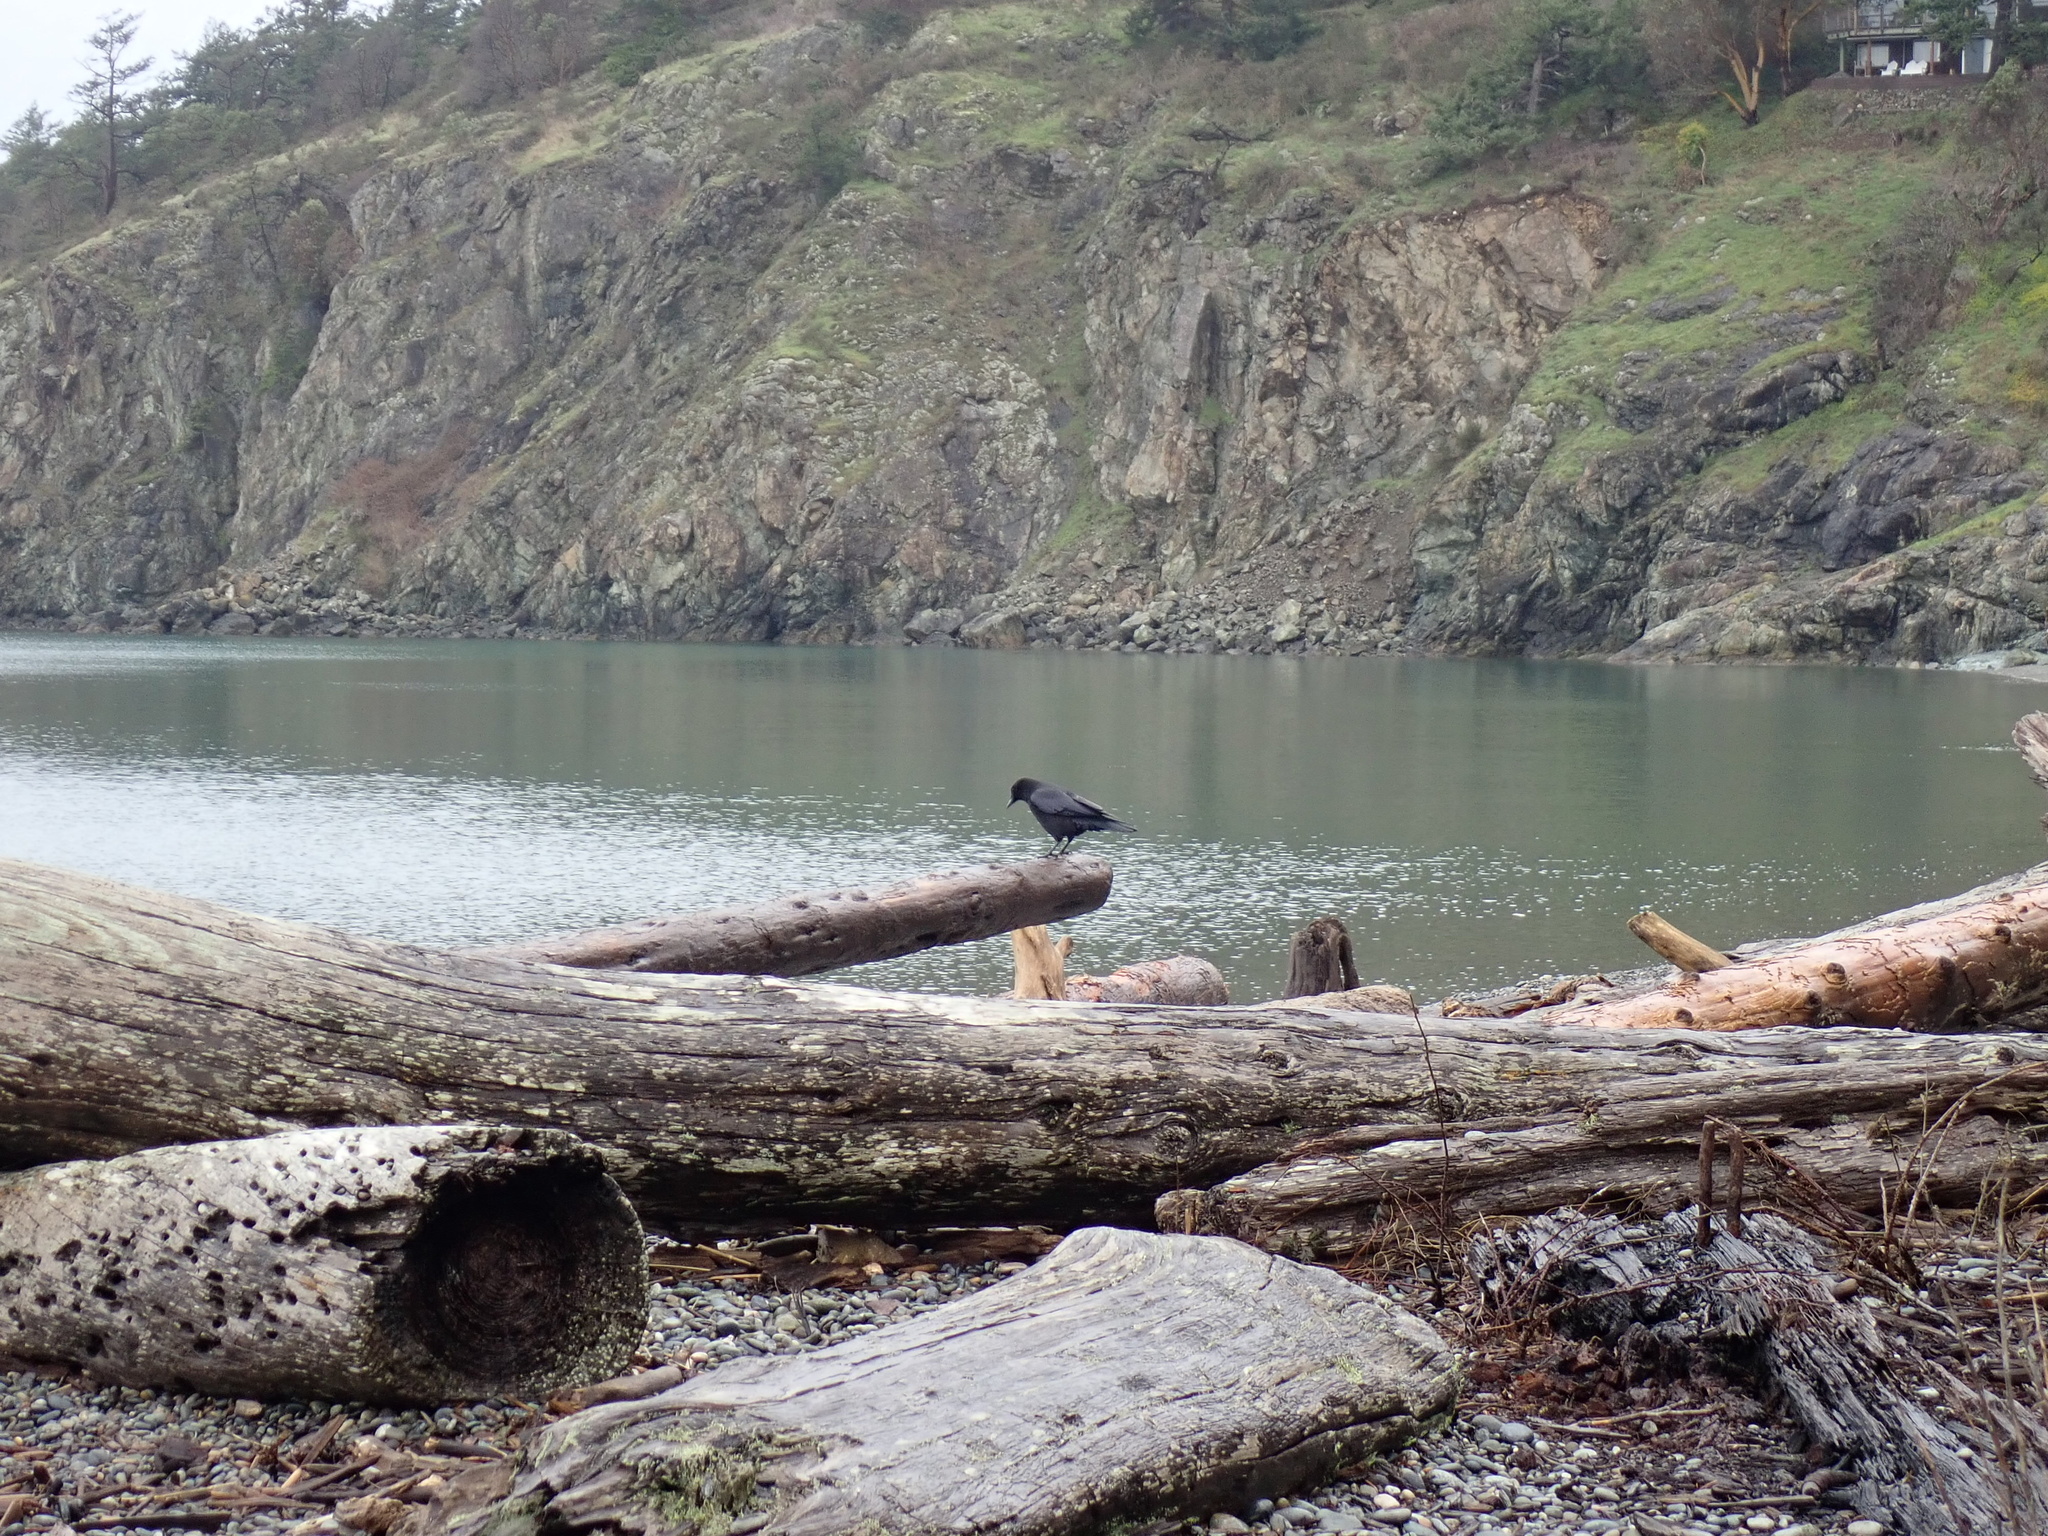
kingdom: Animalia
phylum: Chordata
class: Aves
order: Passeriformes
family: Corvidae
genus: Corvus
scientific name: Corvus brachyrhynchos
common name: American crow
